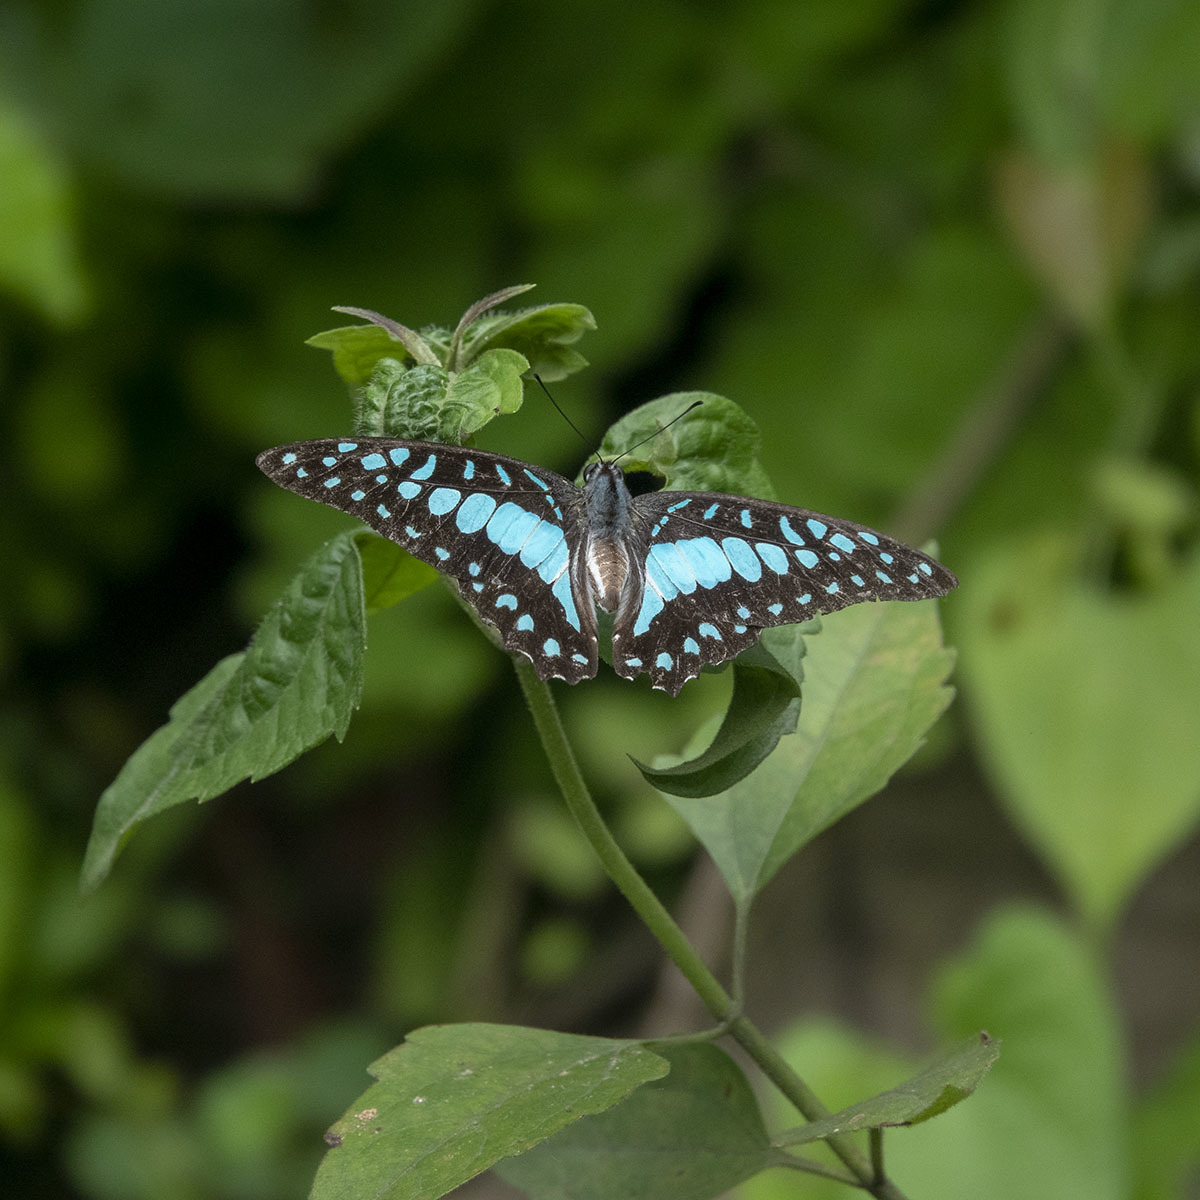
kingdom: Animalia
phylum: Arthropoda
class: Insecta
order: Lepidoptera
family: Papilionidae
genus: Graphium
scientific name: Graphium doson
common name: Common jay
